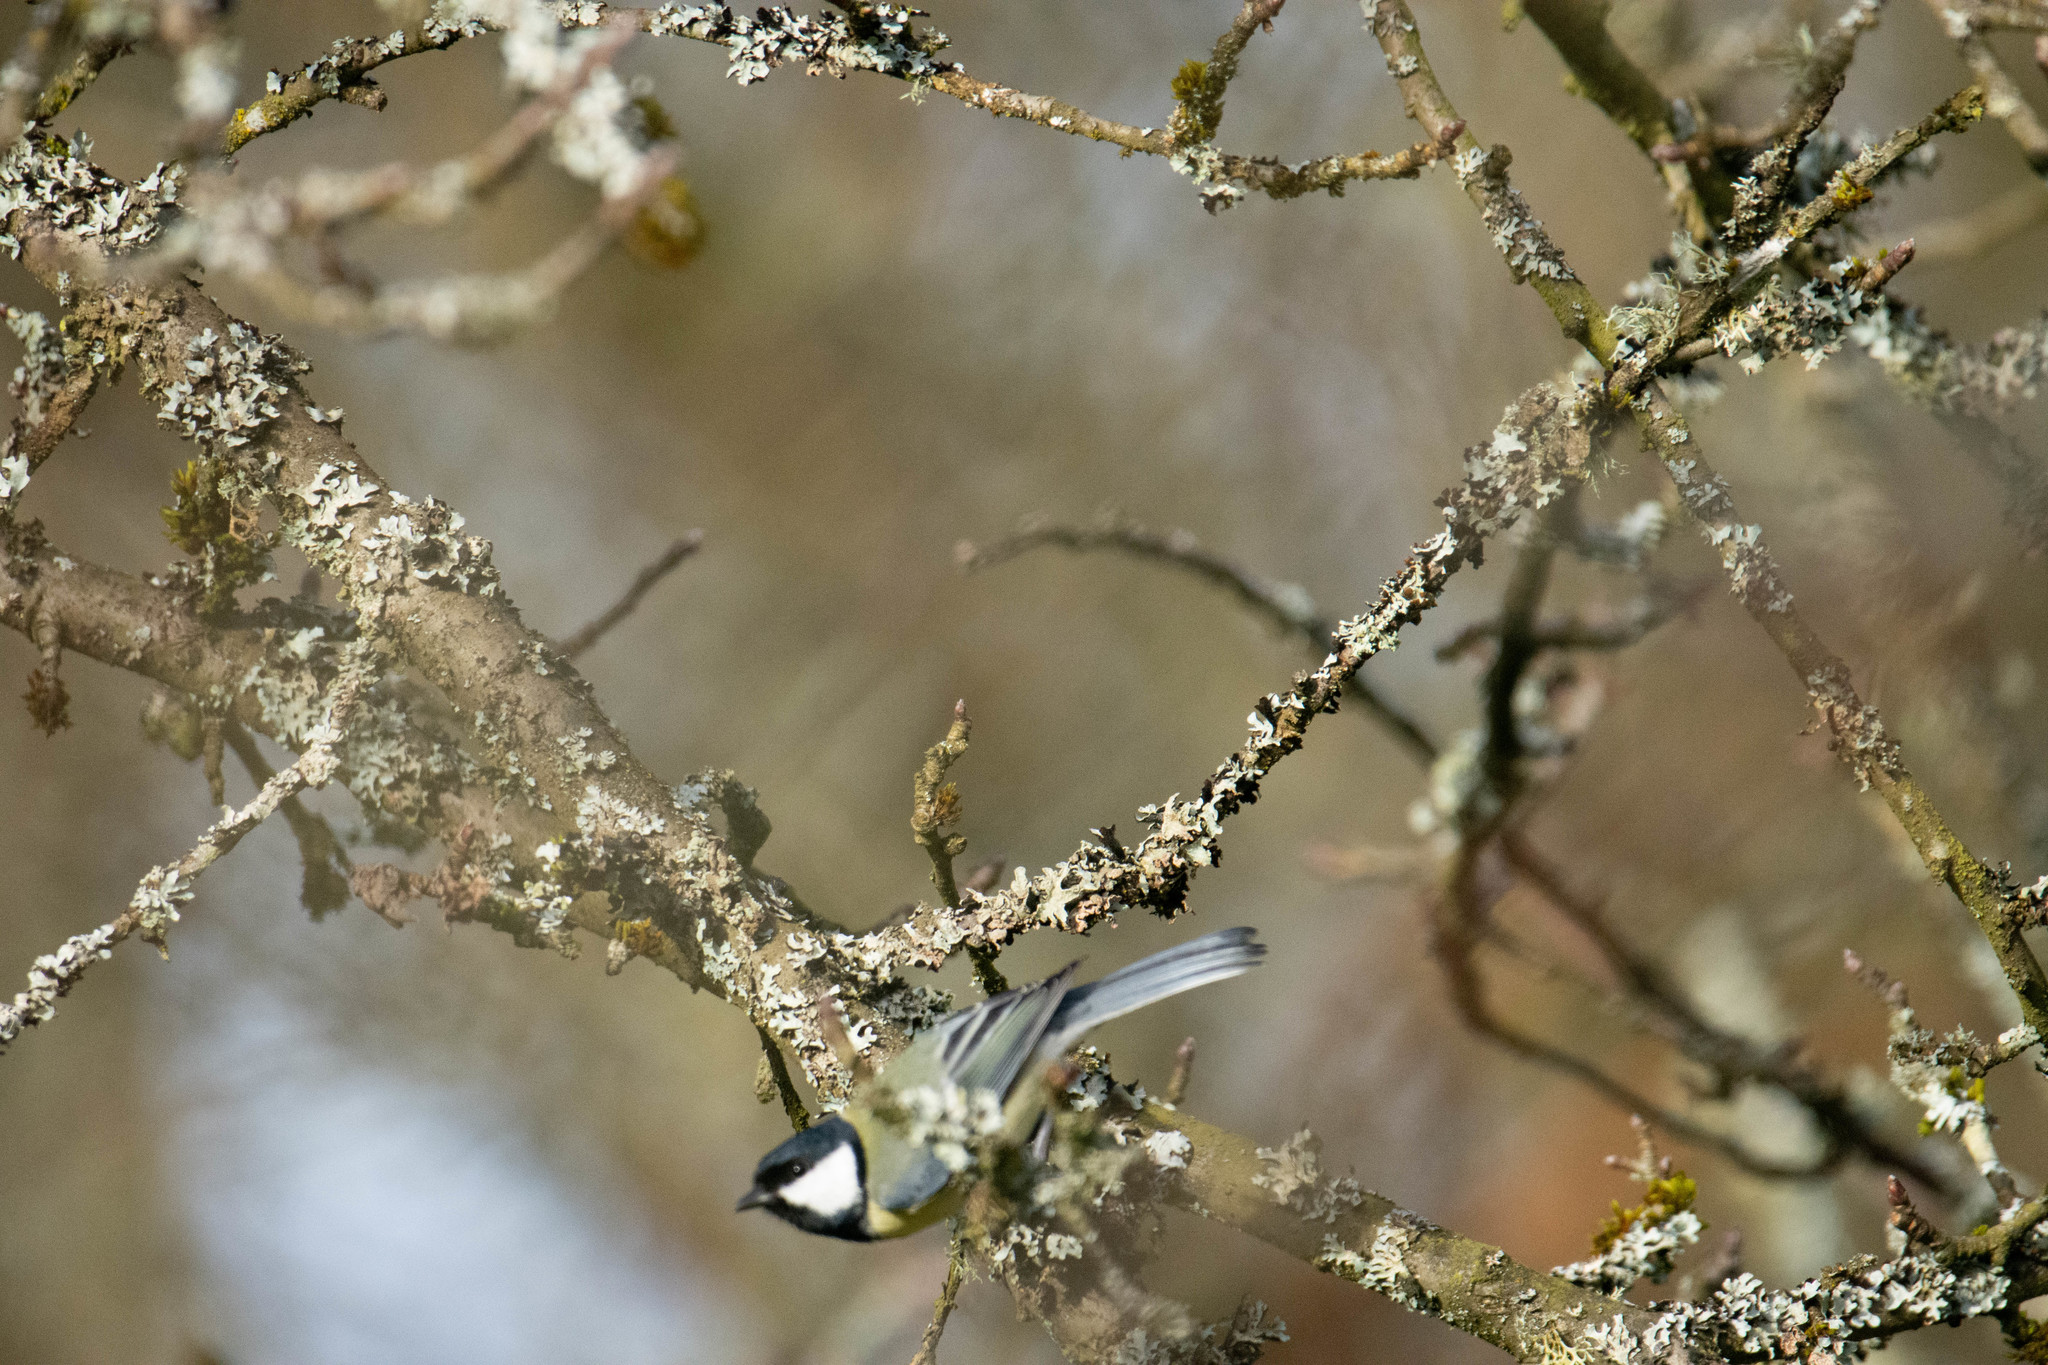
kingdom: Animalia
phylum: Chordata
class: Aves
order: Passeriformes
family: Paridae
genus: Parus
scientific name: Parus major
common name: Great tit
